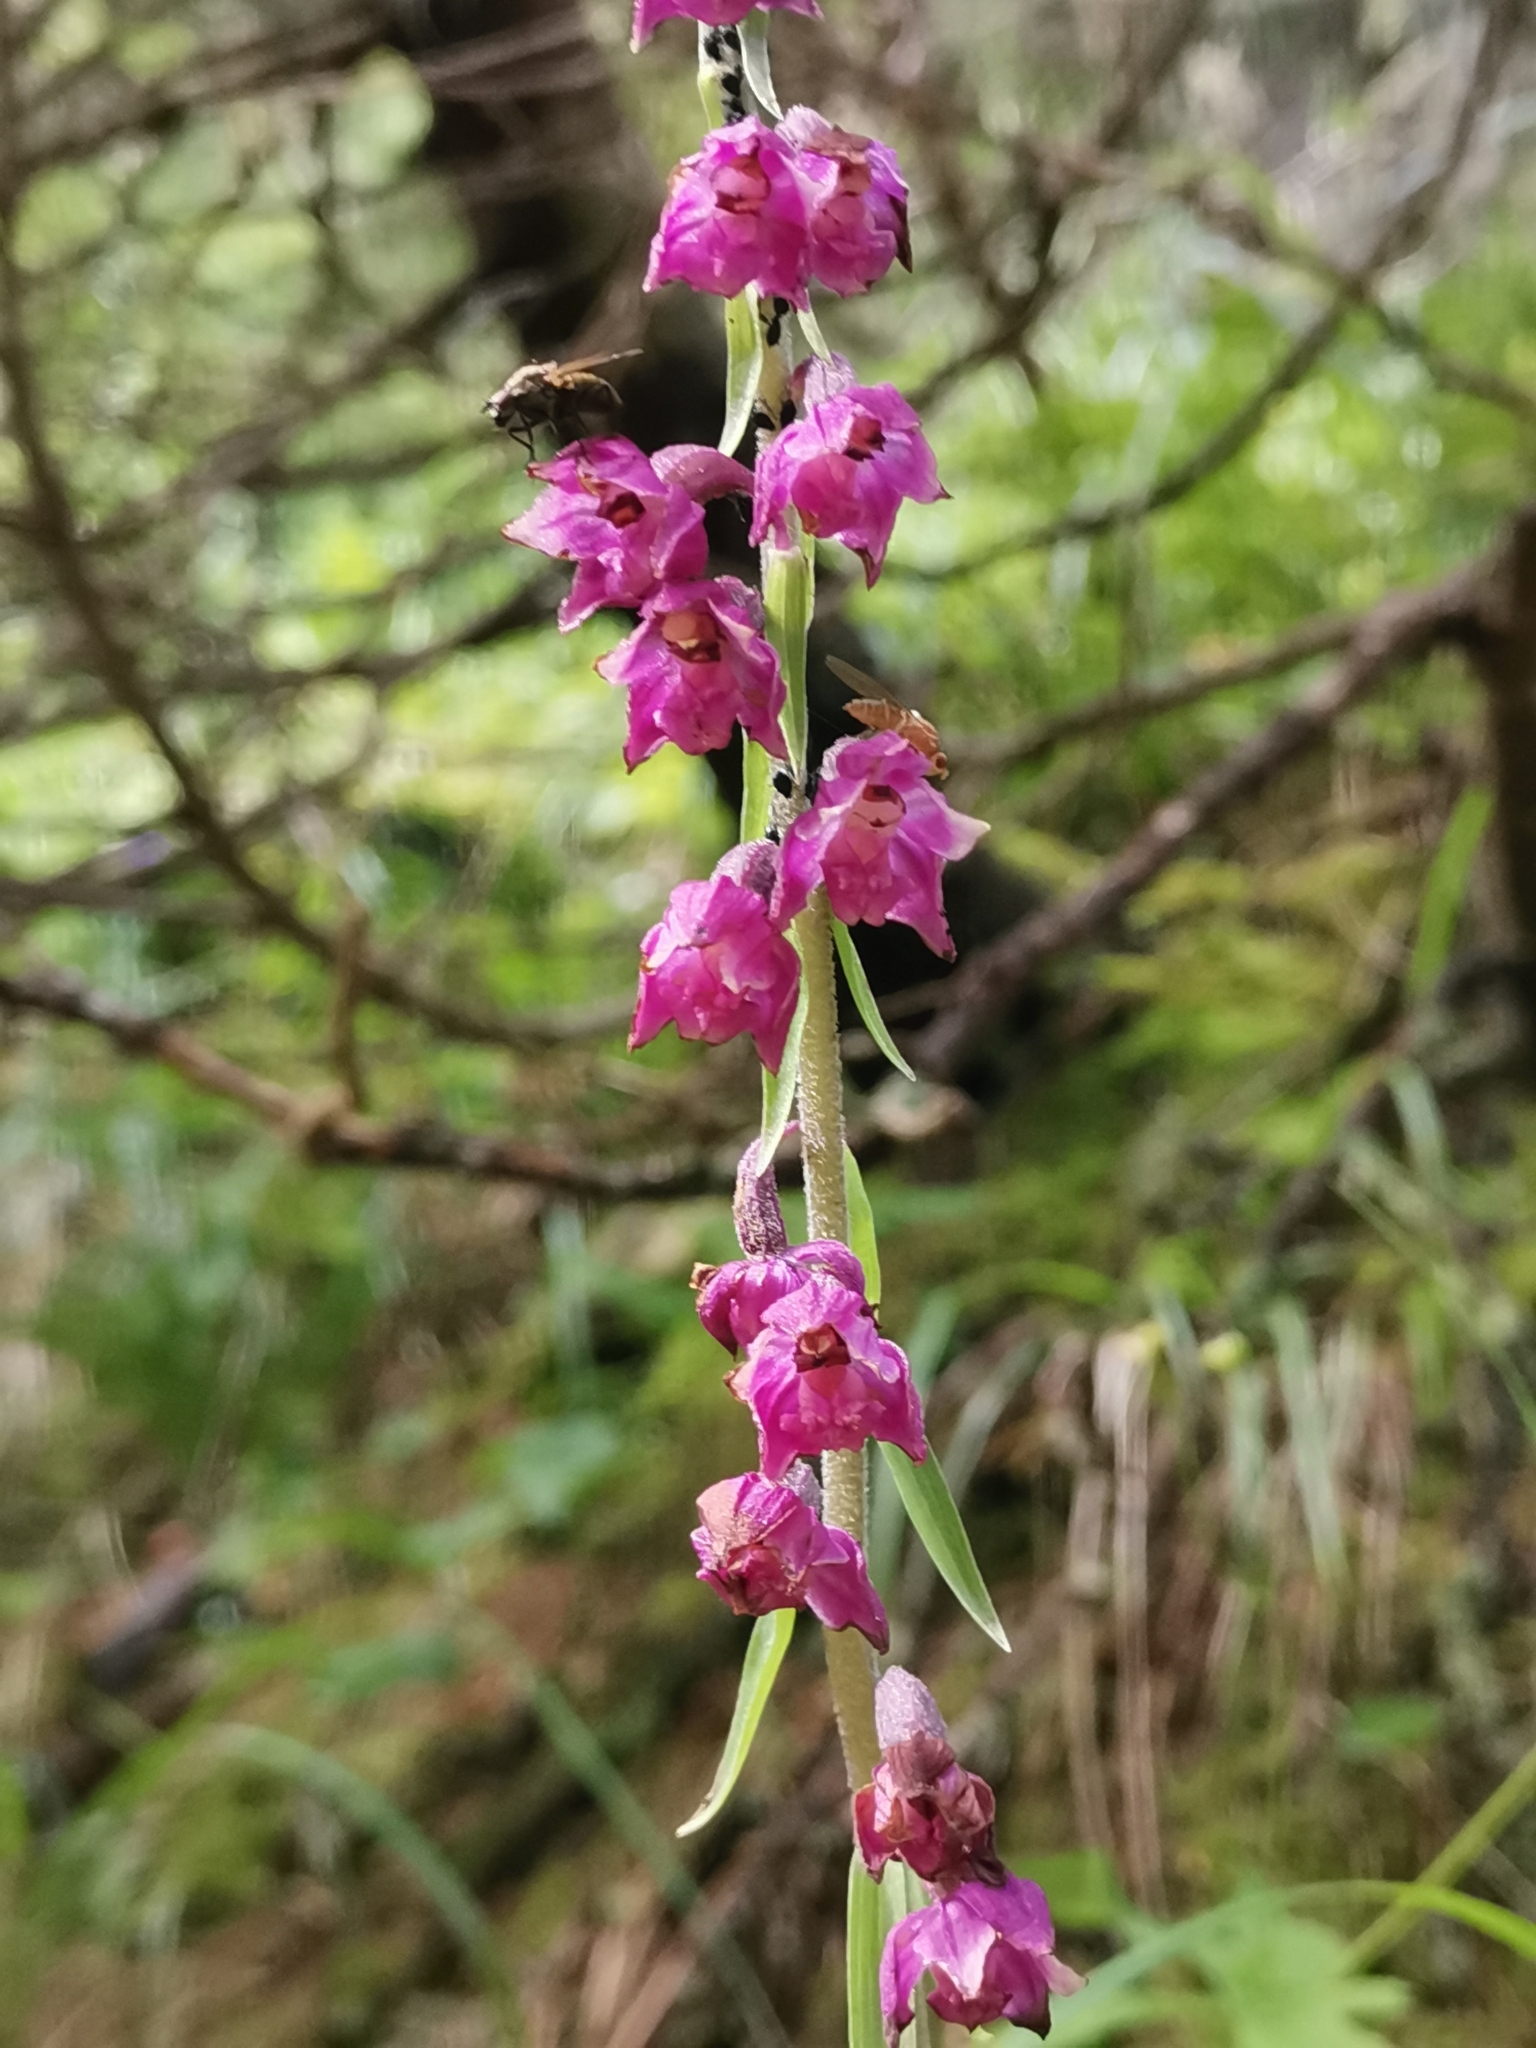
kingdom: Plantae
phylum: Tracheophyta
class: Liliopsida
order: Asparagales
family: Orchidaceae
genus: Epipactis
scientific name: Epipactis atrorubens
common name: Dark-red helleborine
